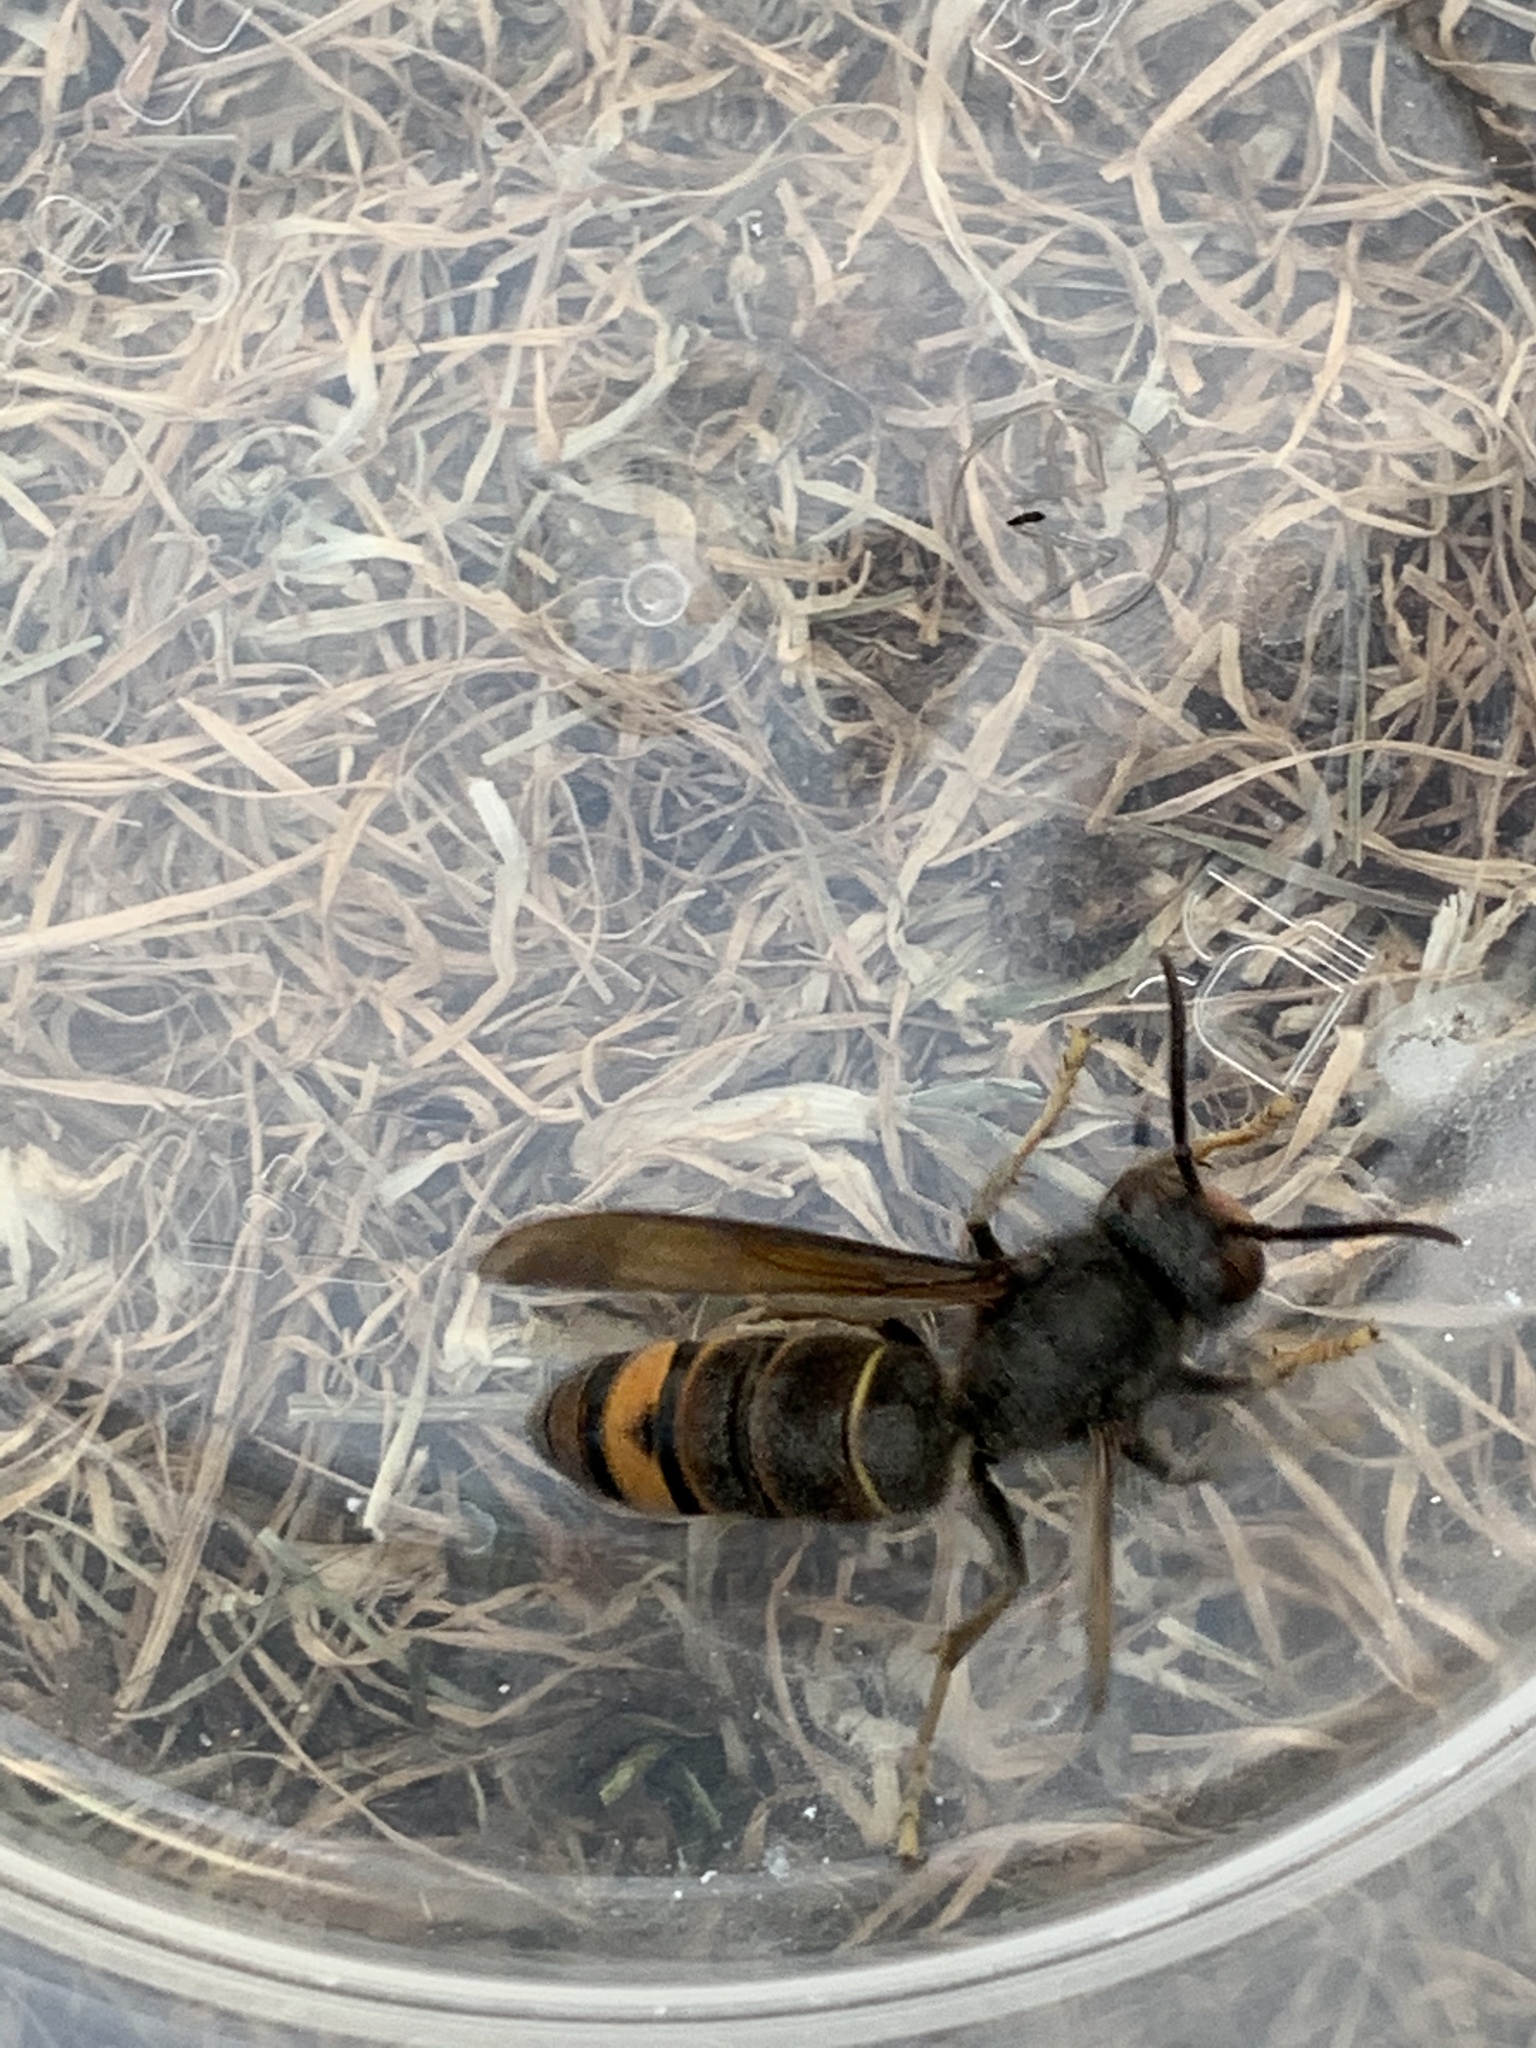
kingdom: Animalia
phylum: Arthropoda
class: Insecta
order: Hymenoptera
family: Vespidae
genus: Vespa
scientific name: Vespa velutina
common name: Asian hornet
